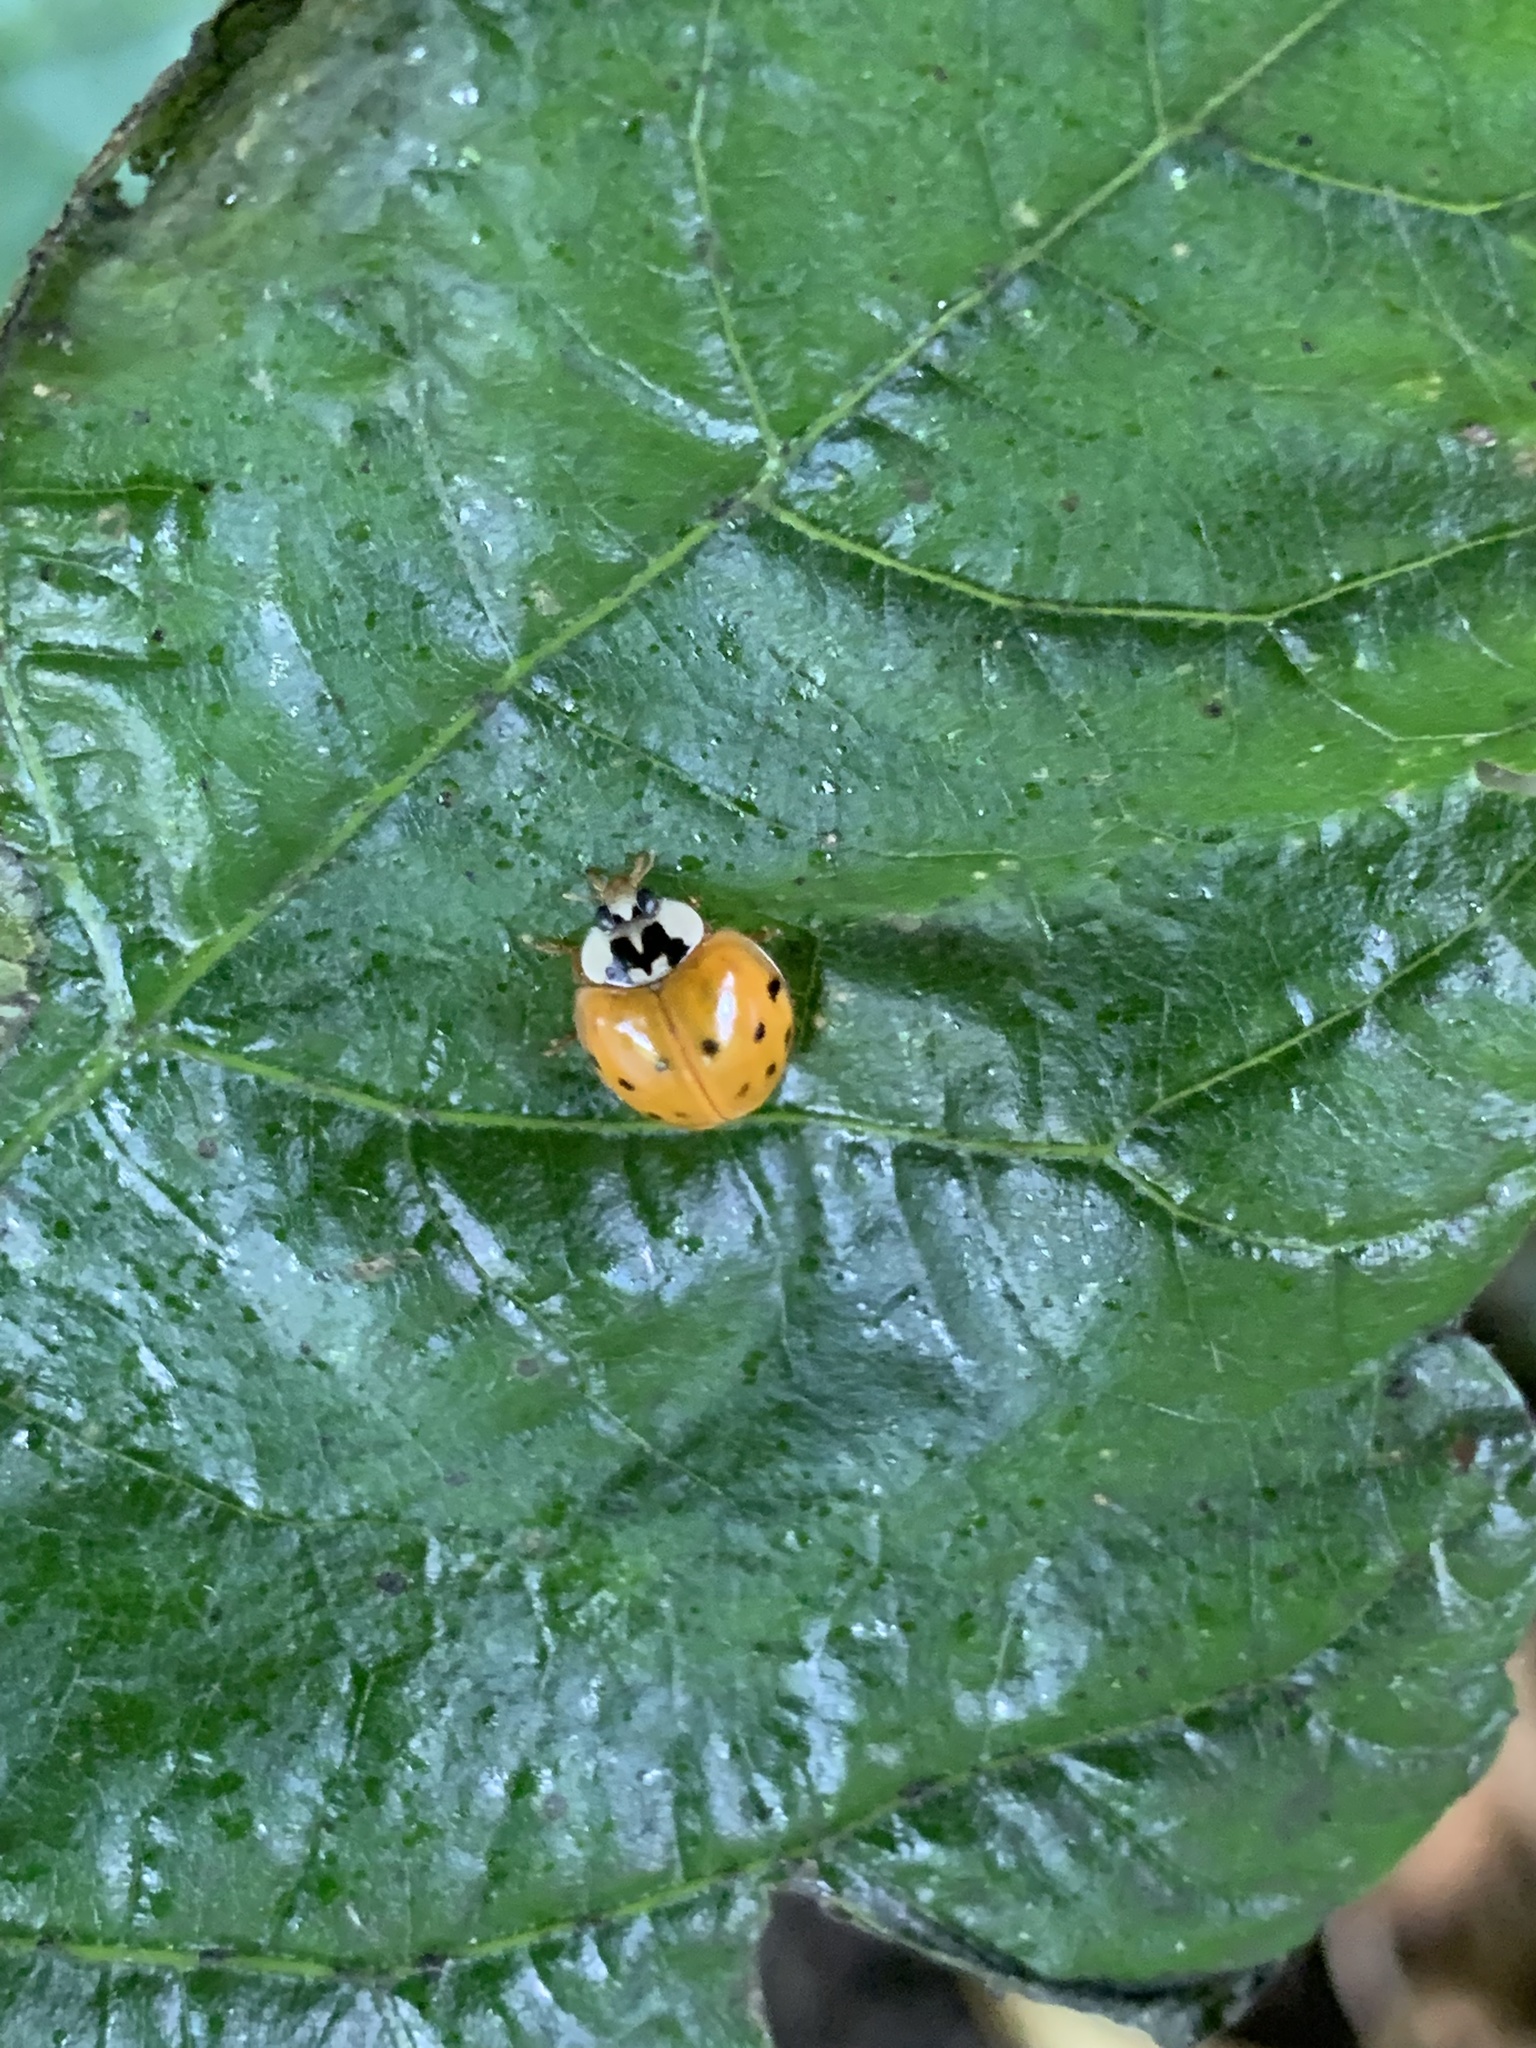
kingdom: Animalia
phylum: Arthropoda
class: Insecta
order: Coleoptera
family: Coccinellidae
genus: Harmonia
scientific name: Harmonia axyridis
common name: Harlequin ladybird
